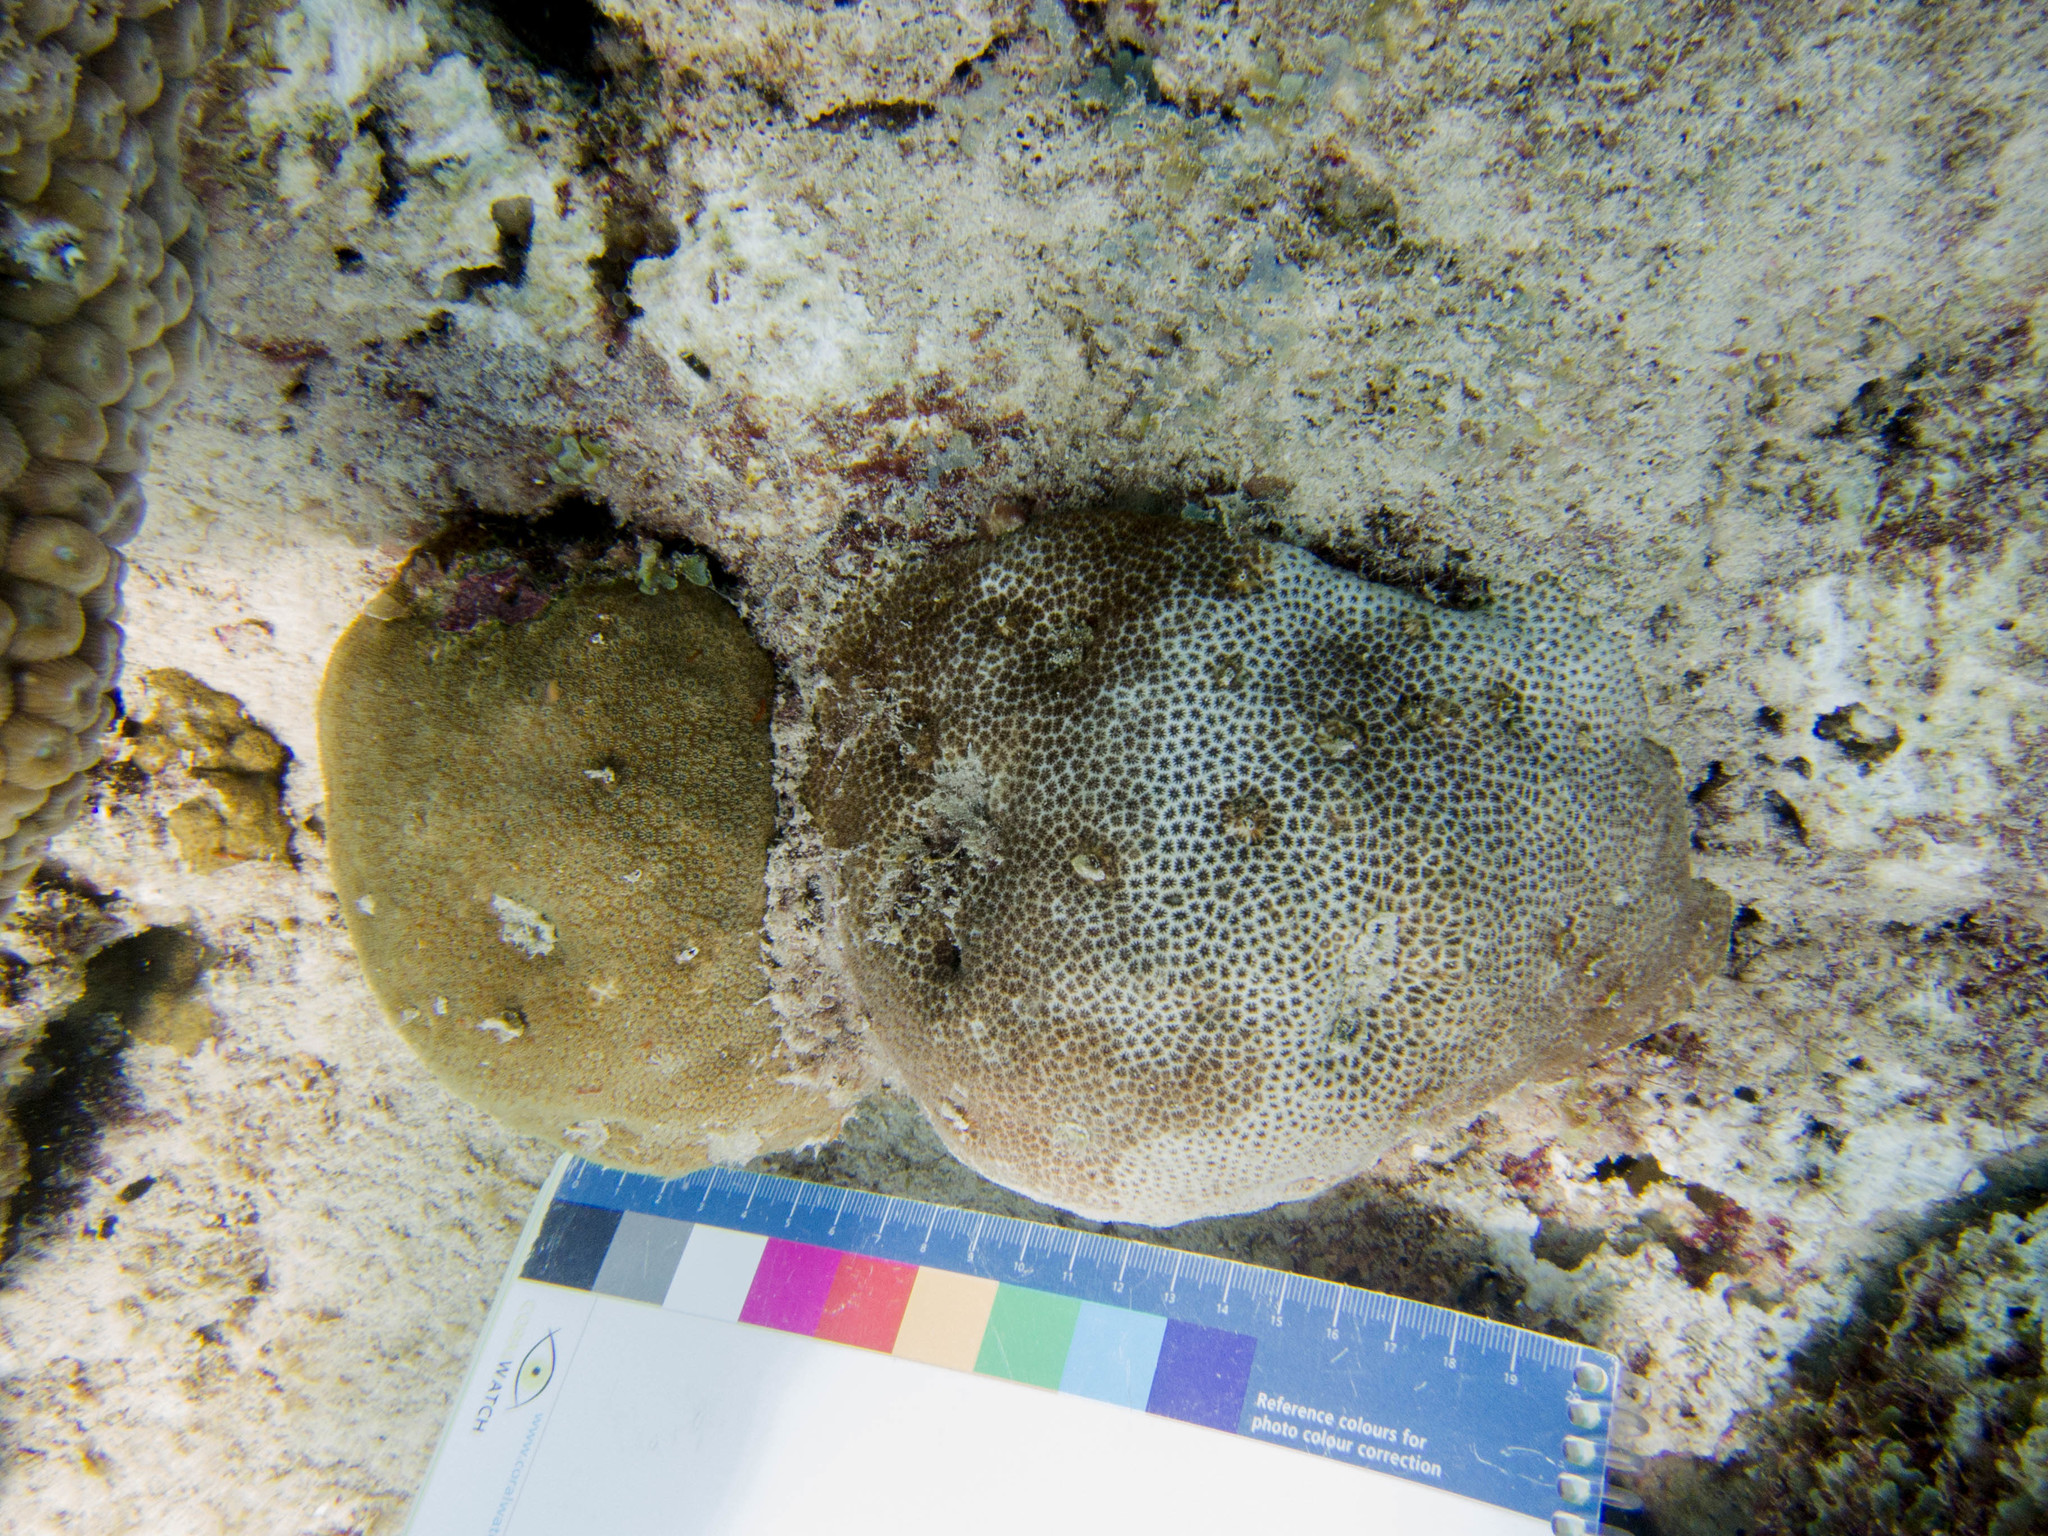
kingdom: Animalia
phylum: Cnidaria
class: Anthozoa
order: Scleractinia
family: Astrocoeniidae
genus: Stephanocoenia
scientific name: Stephanocoenia intersepta
